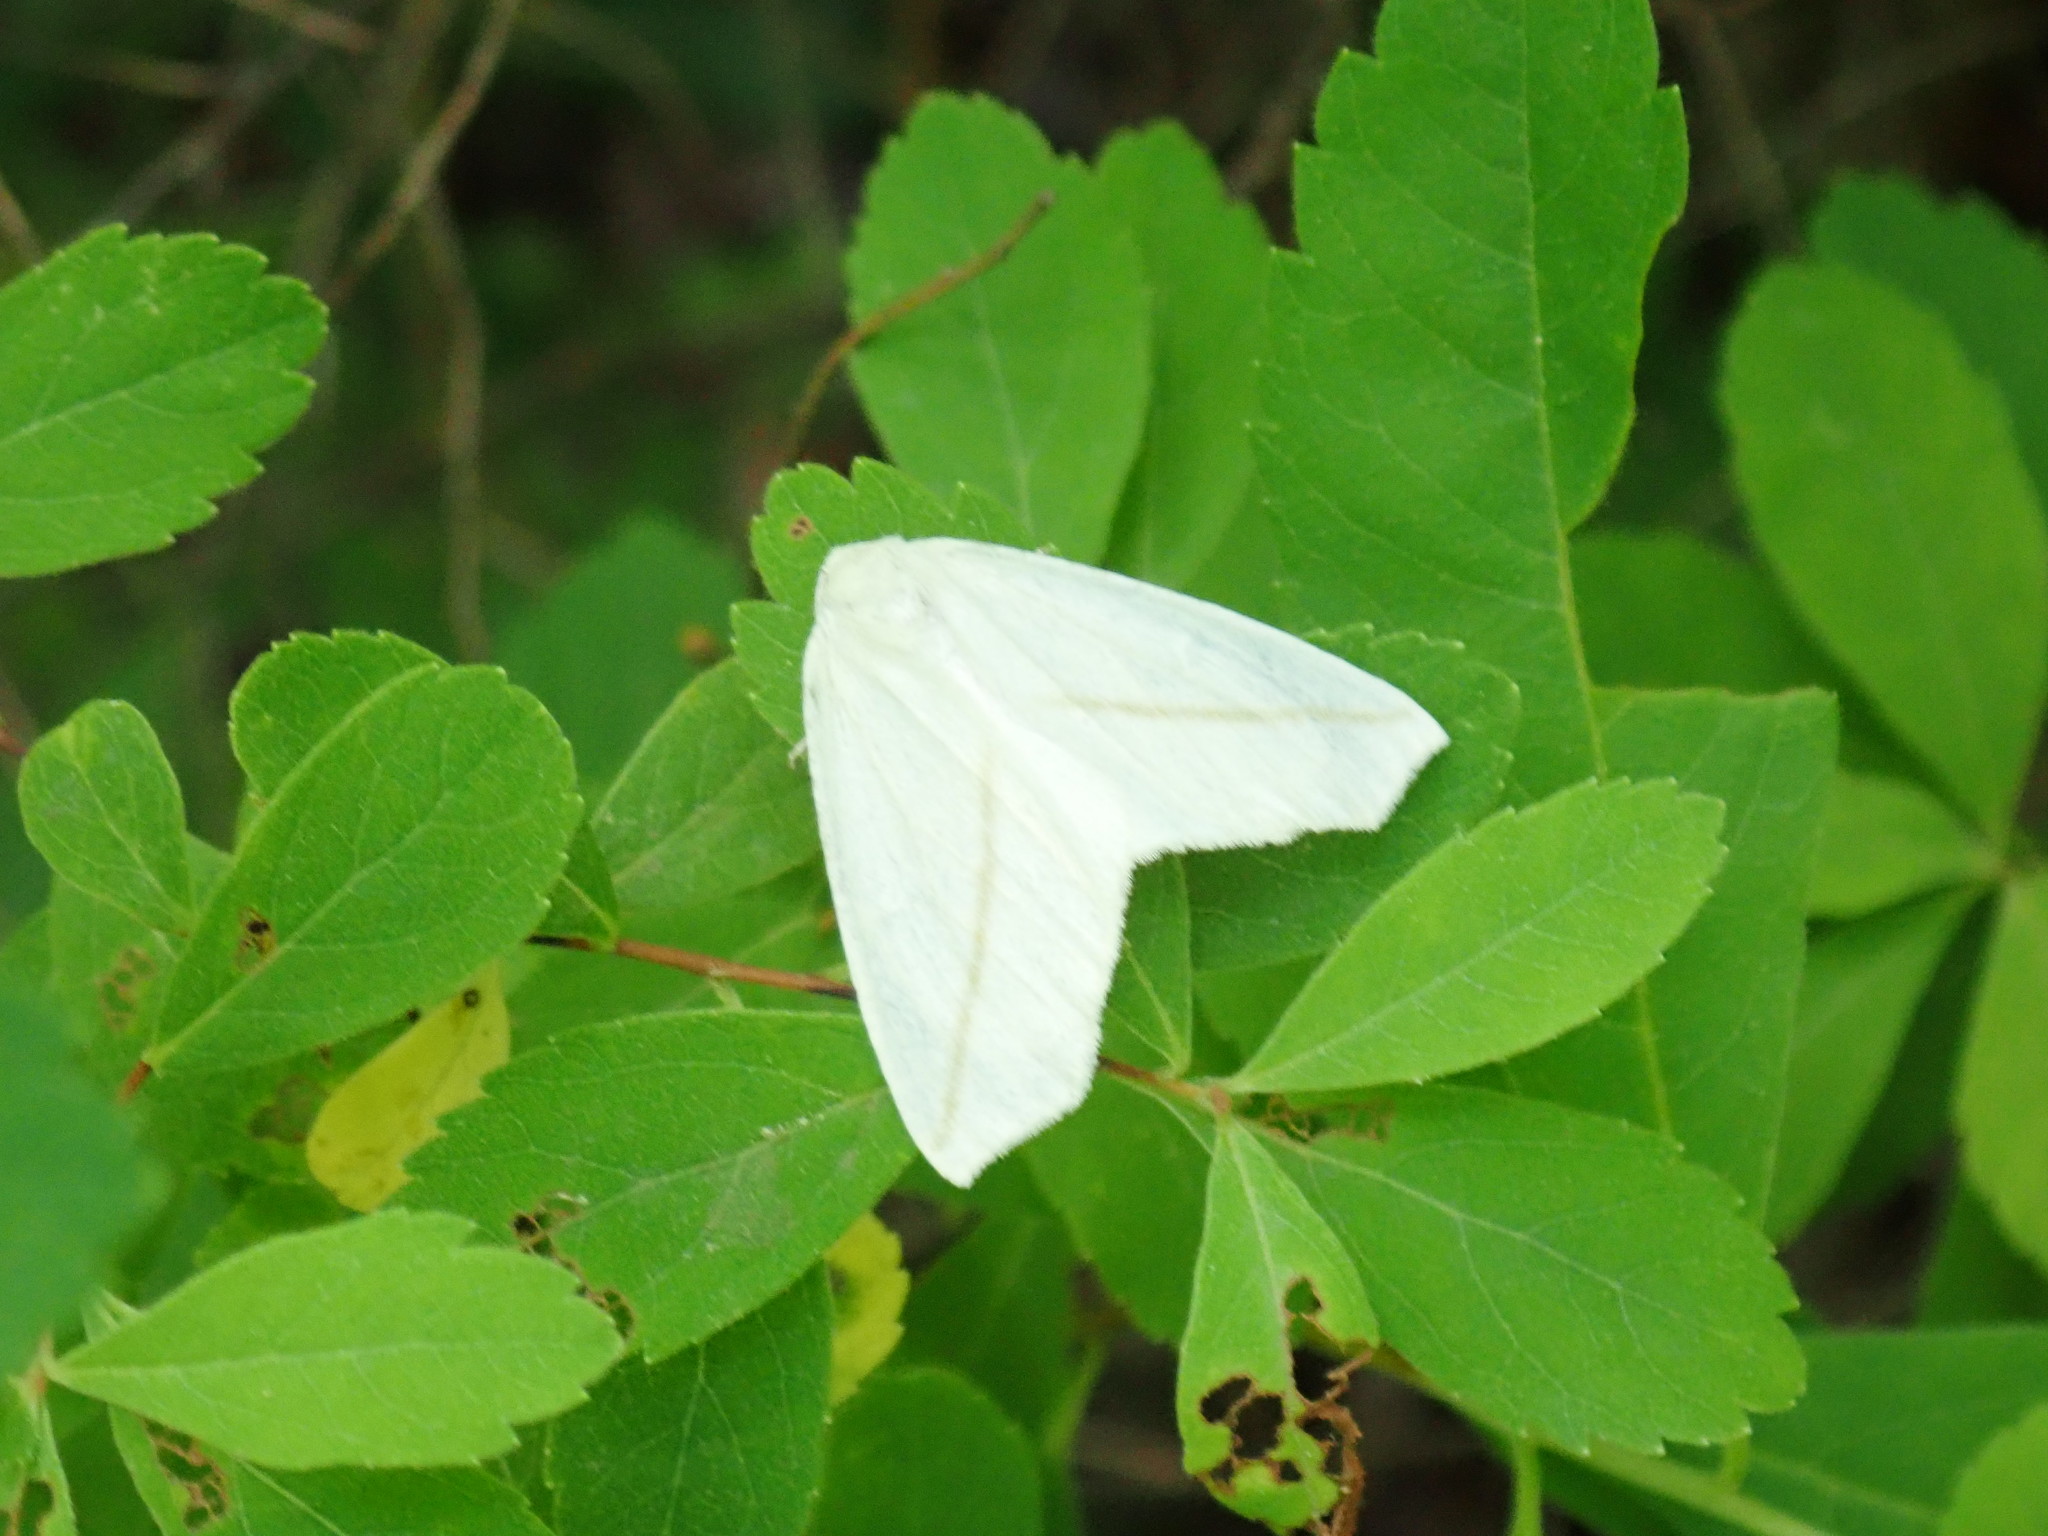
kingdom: Animalia
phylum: Arthropoda
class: Insecta
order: Lepidoptera
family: Geometridae
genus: Tetracis
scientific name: Tetracis cachexiata
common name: White slant-line
